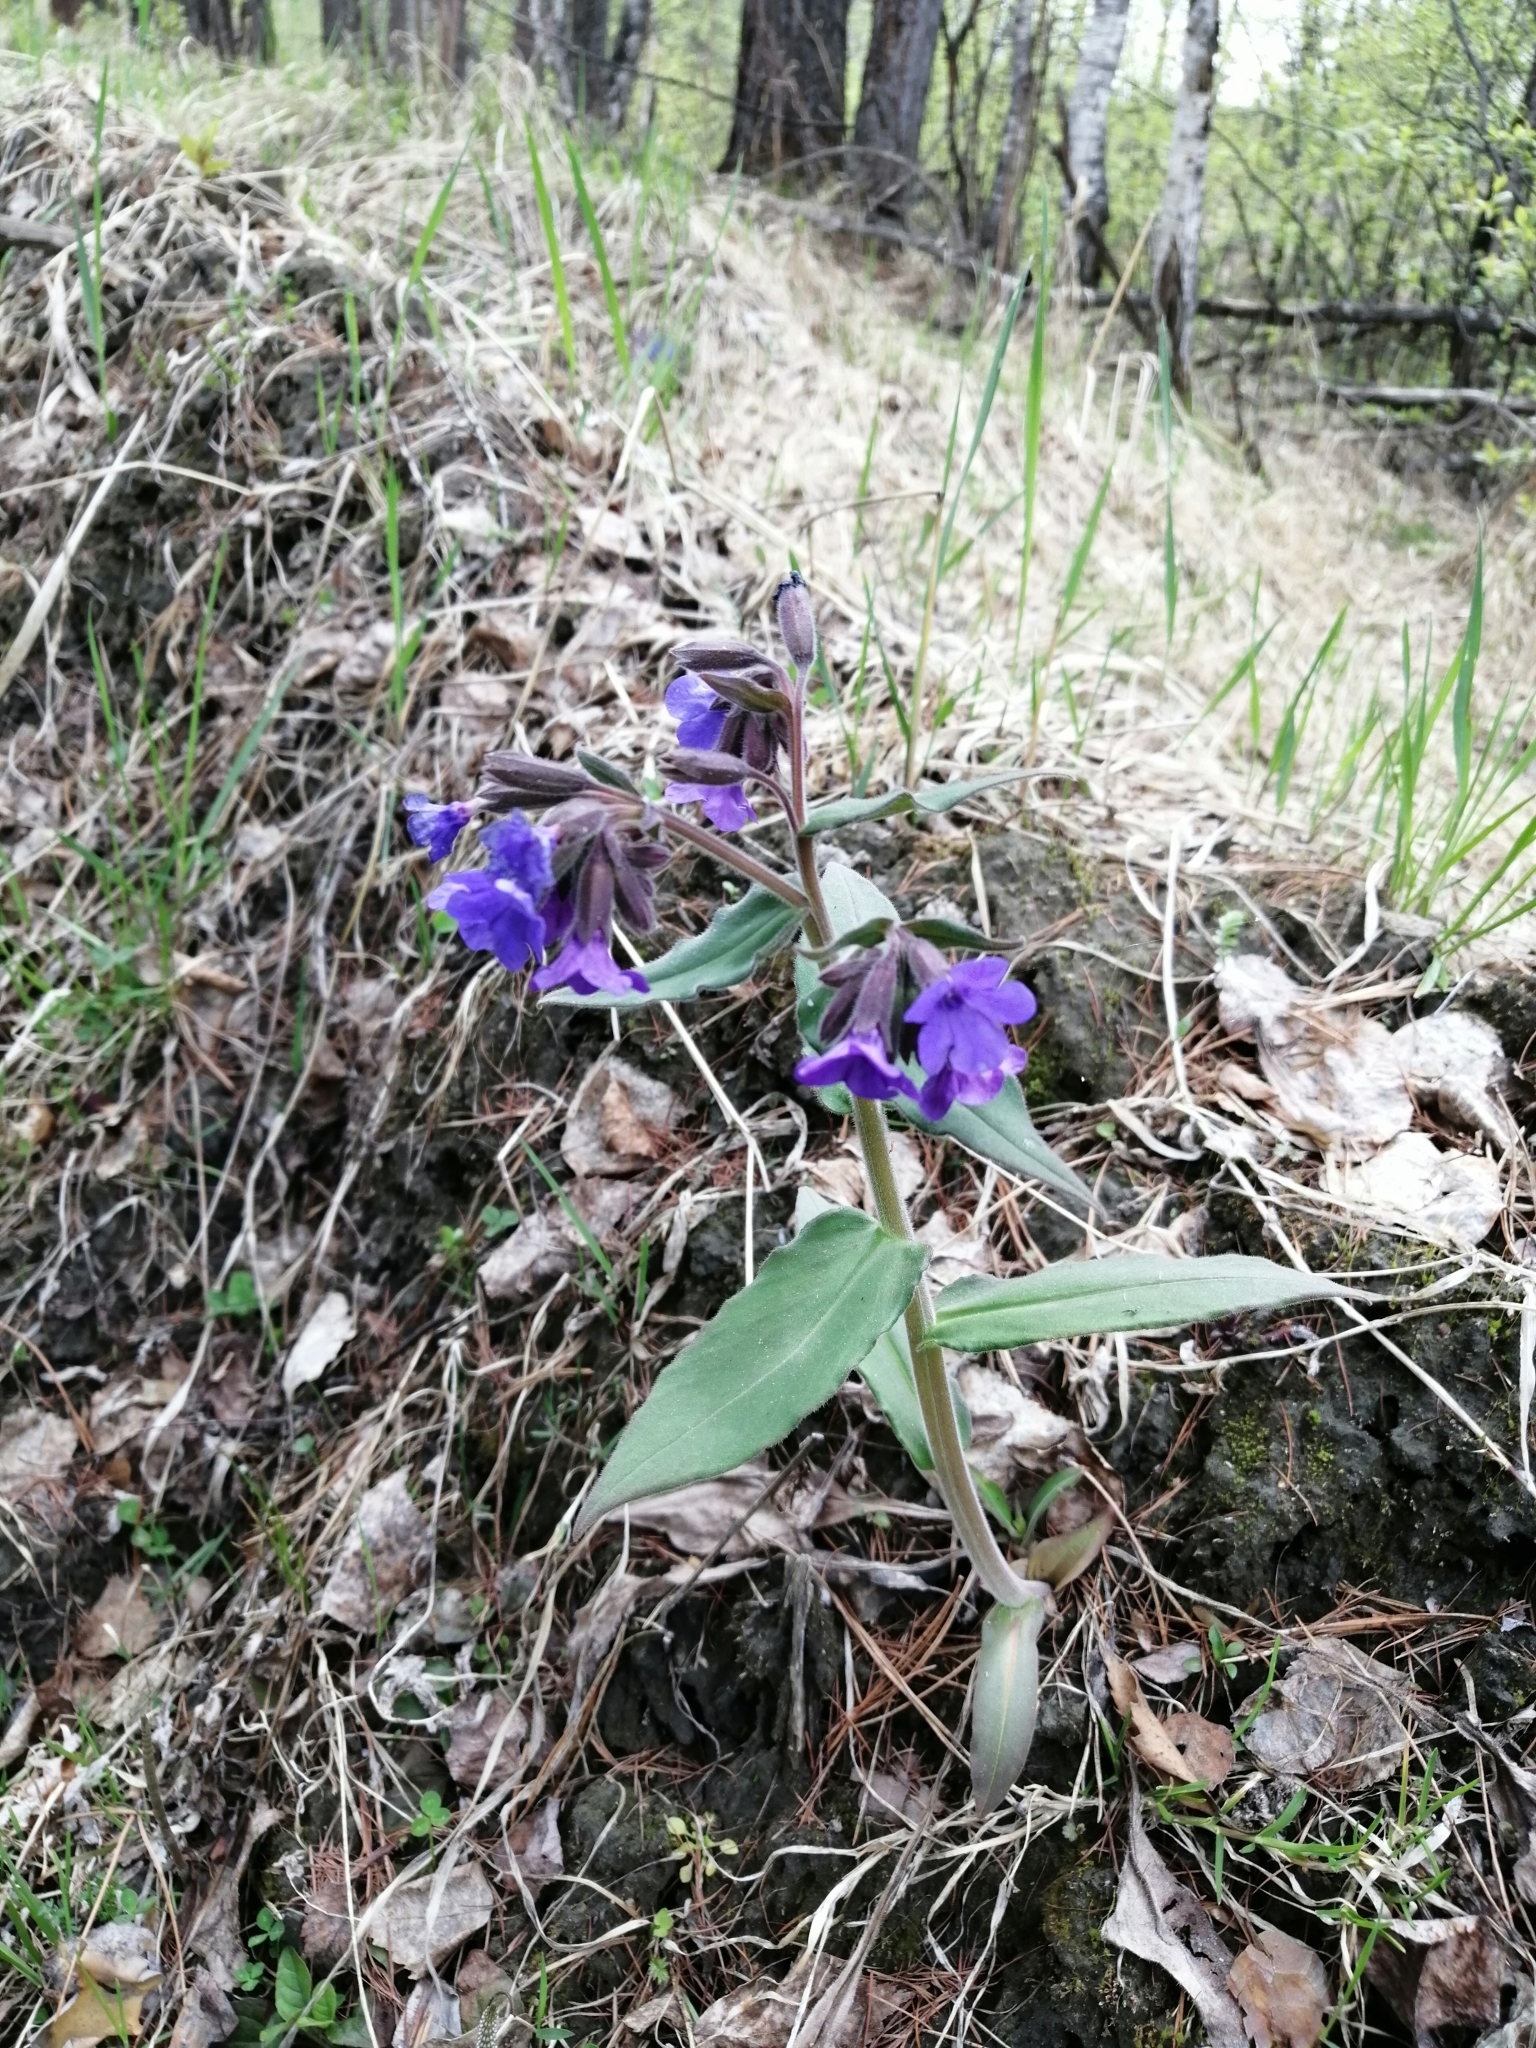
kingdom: Plantae
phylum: Tracheophyta
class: Magnoliopsida
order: Boraginales
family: Boraginaceae
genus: Pulmonaria
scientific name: Pulmonaria mollis
